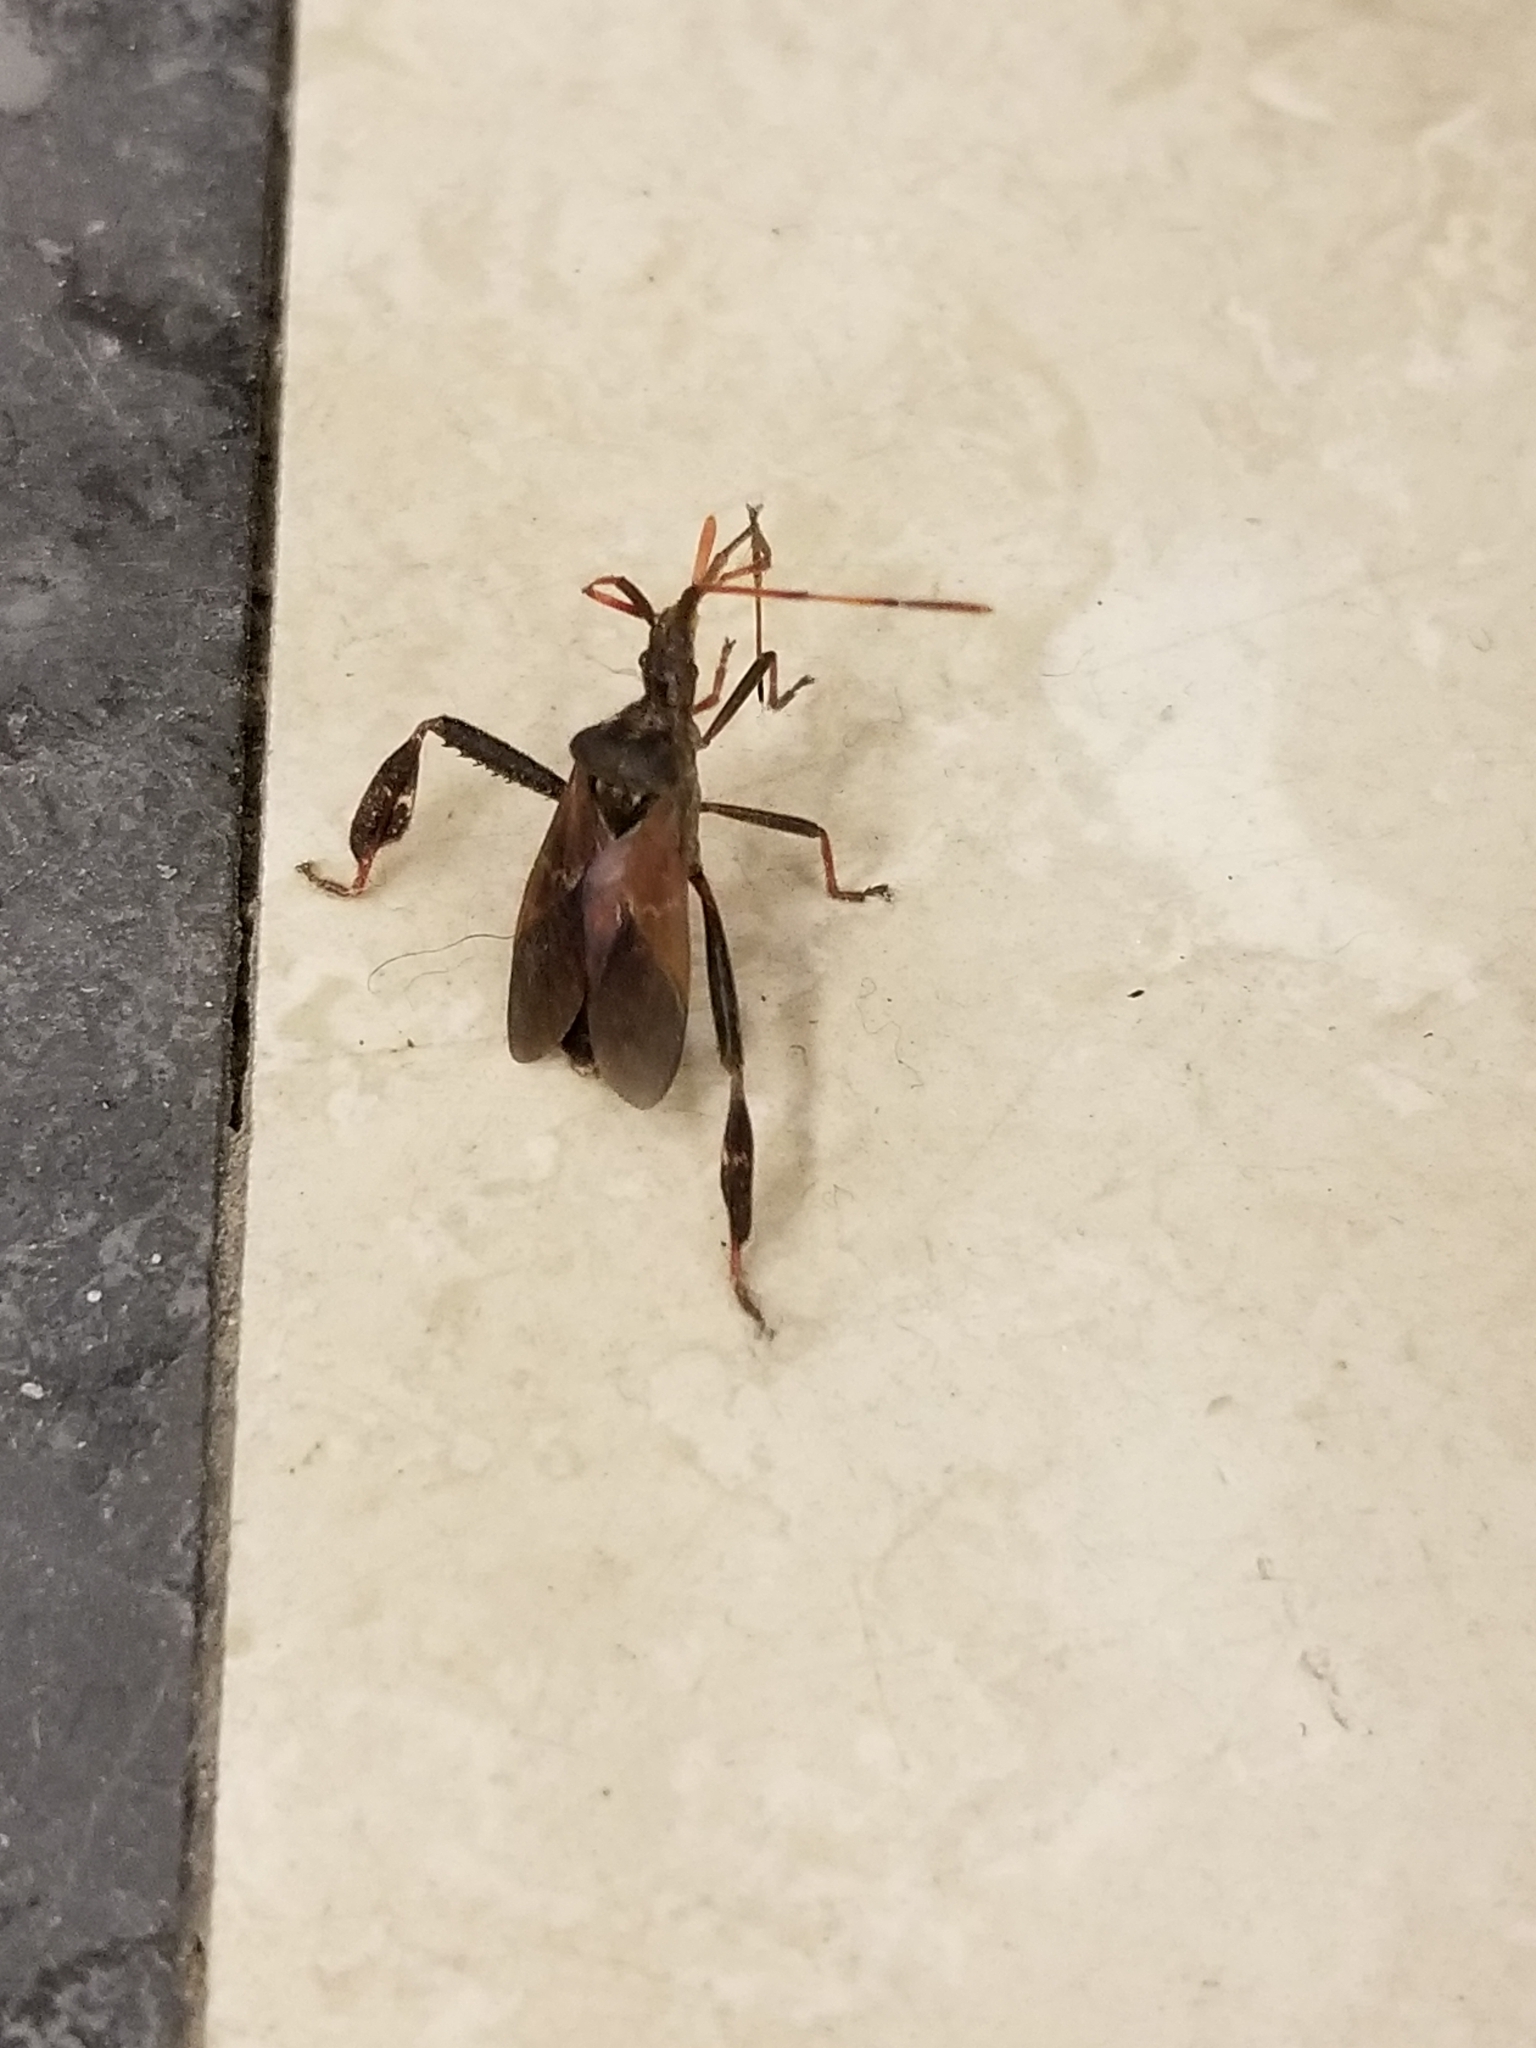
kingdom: Animalia
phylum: Arthropoda
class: Insecta
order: Hemiptera
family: Coreidae
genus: Leptoglossus
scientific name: Leptoglossus corculus
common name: Southern pine seed bug
